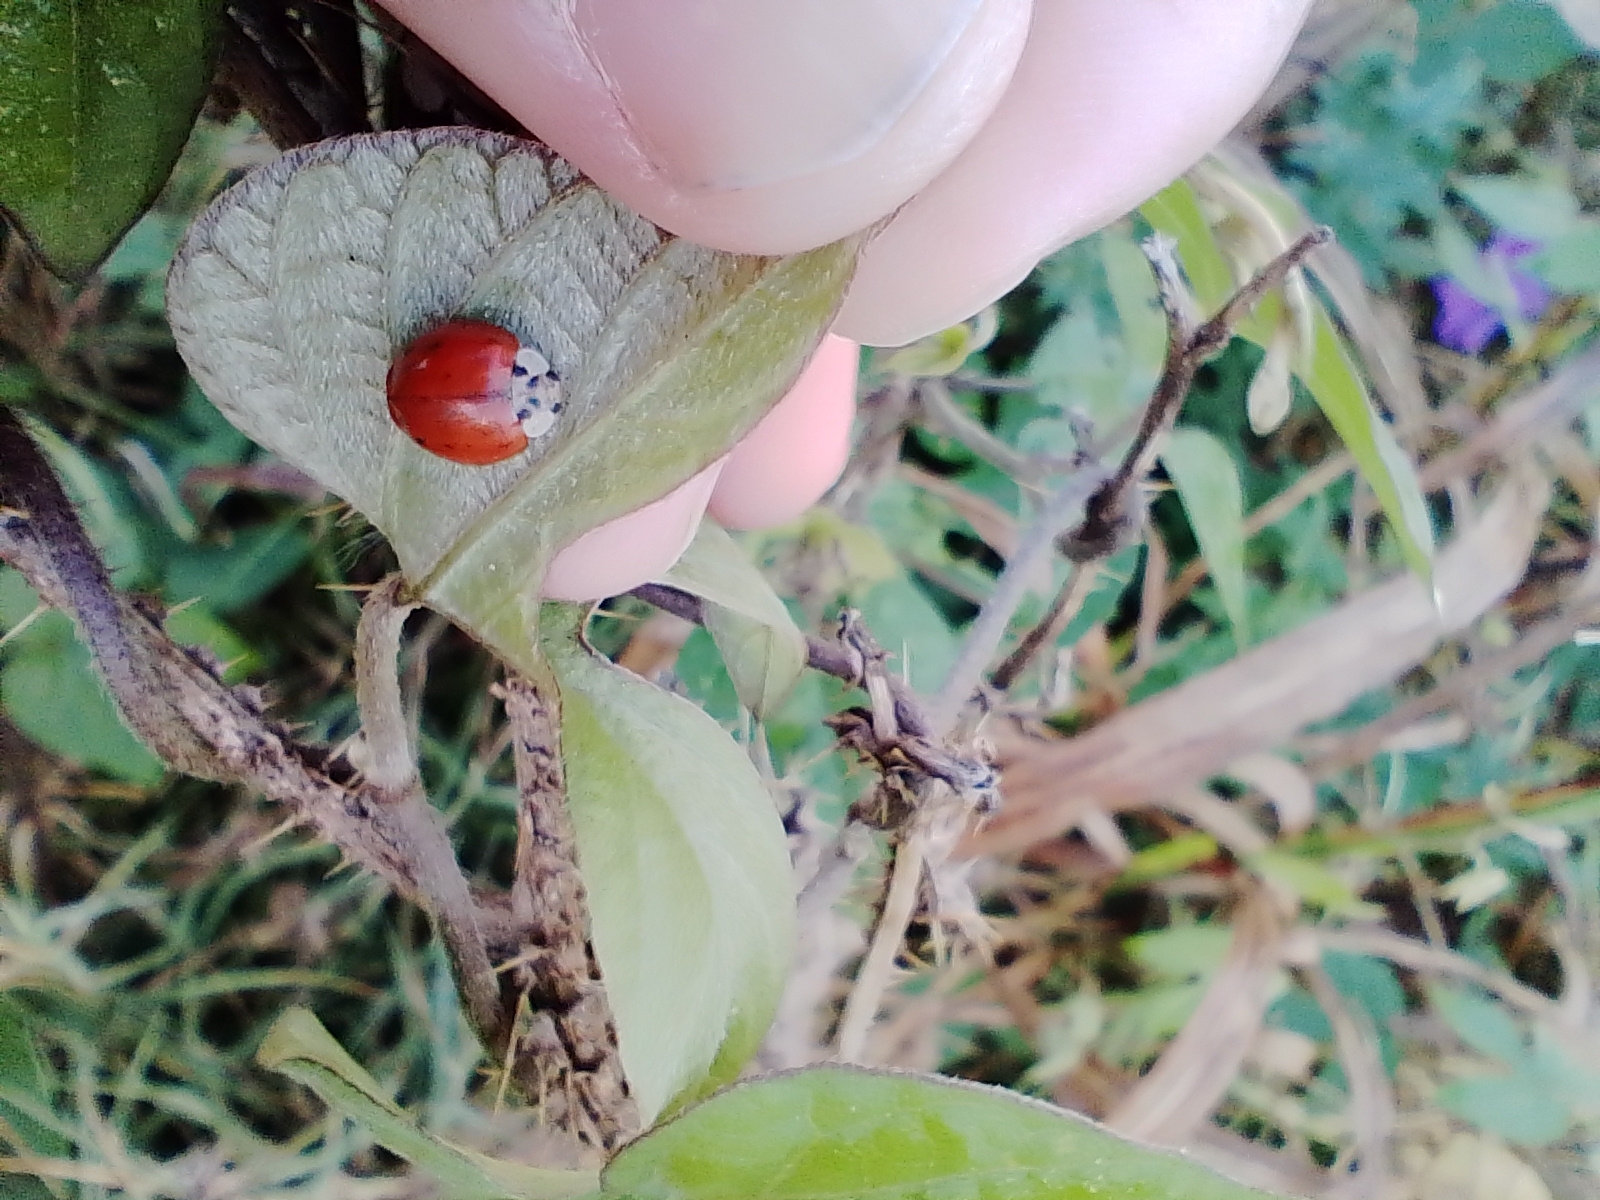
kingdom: Animalia
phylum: Arthropoda
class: Insecta
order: Coleoptera
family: Coccinellidae
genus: Harmonia
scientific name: Harmonia axyridis
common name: Harlequin ladybird
